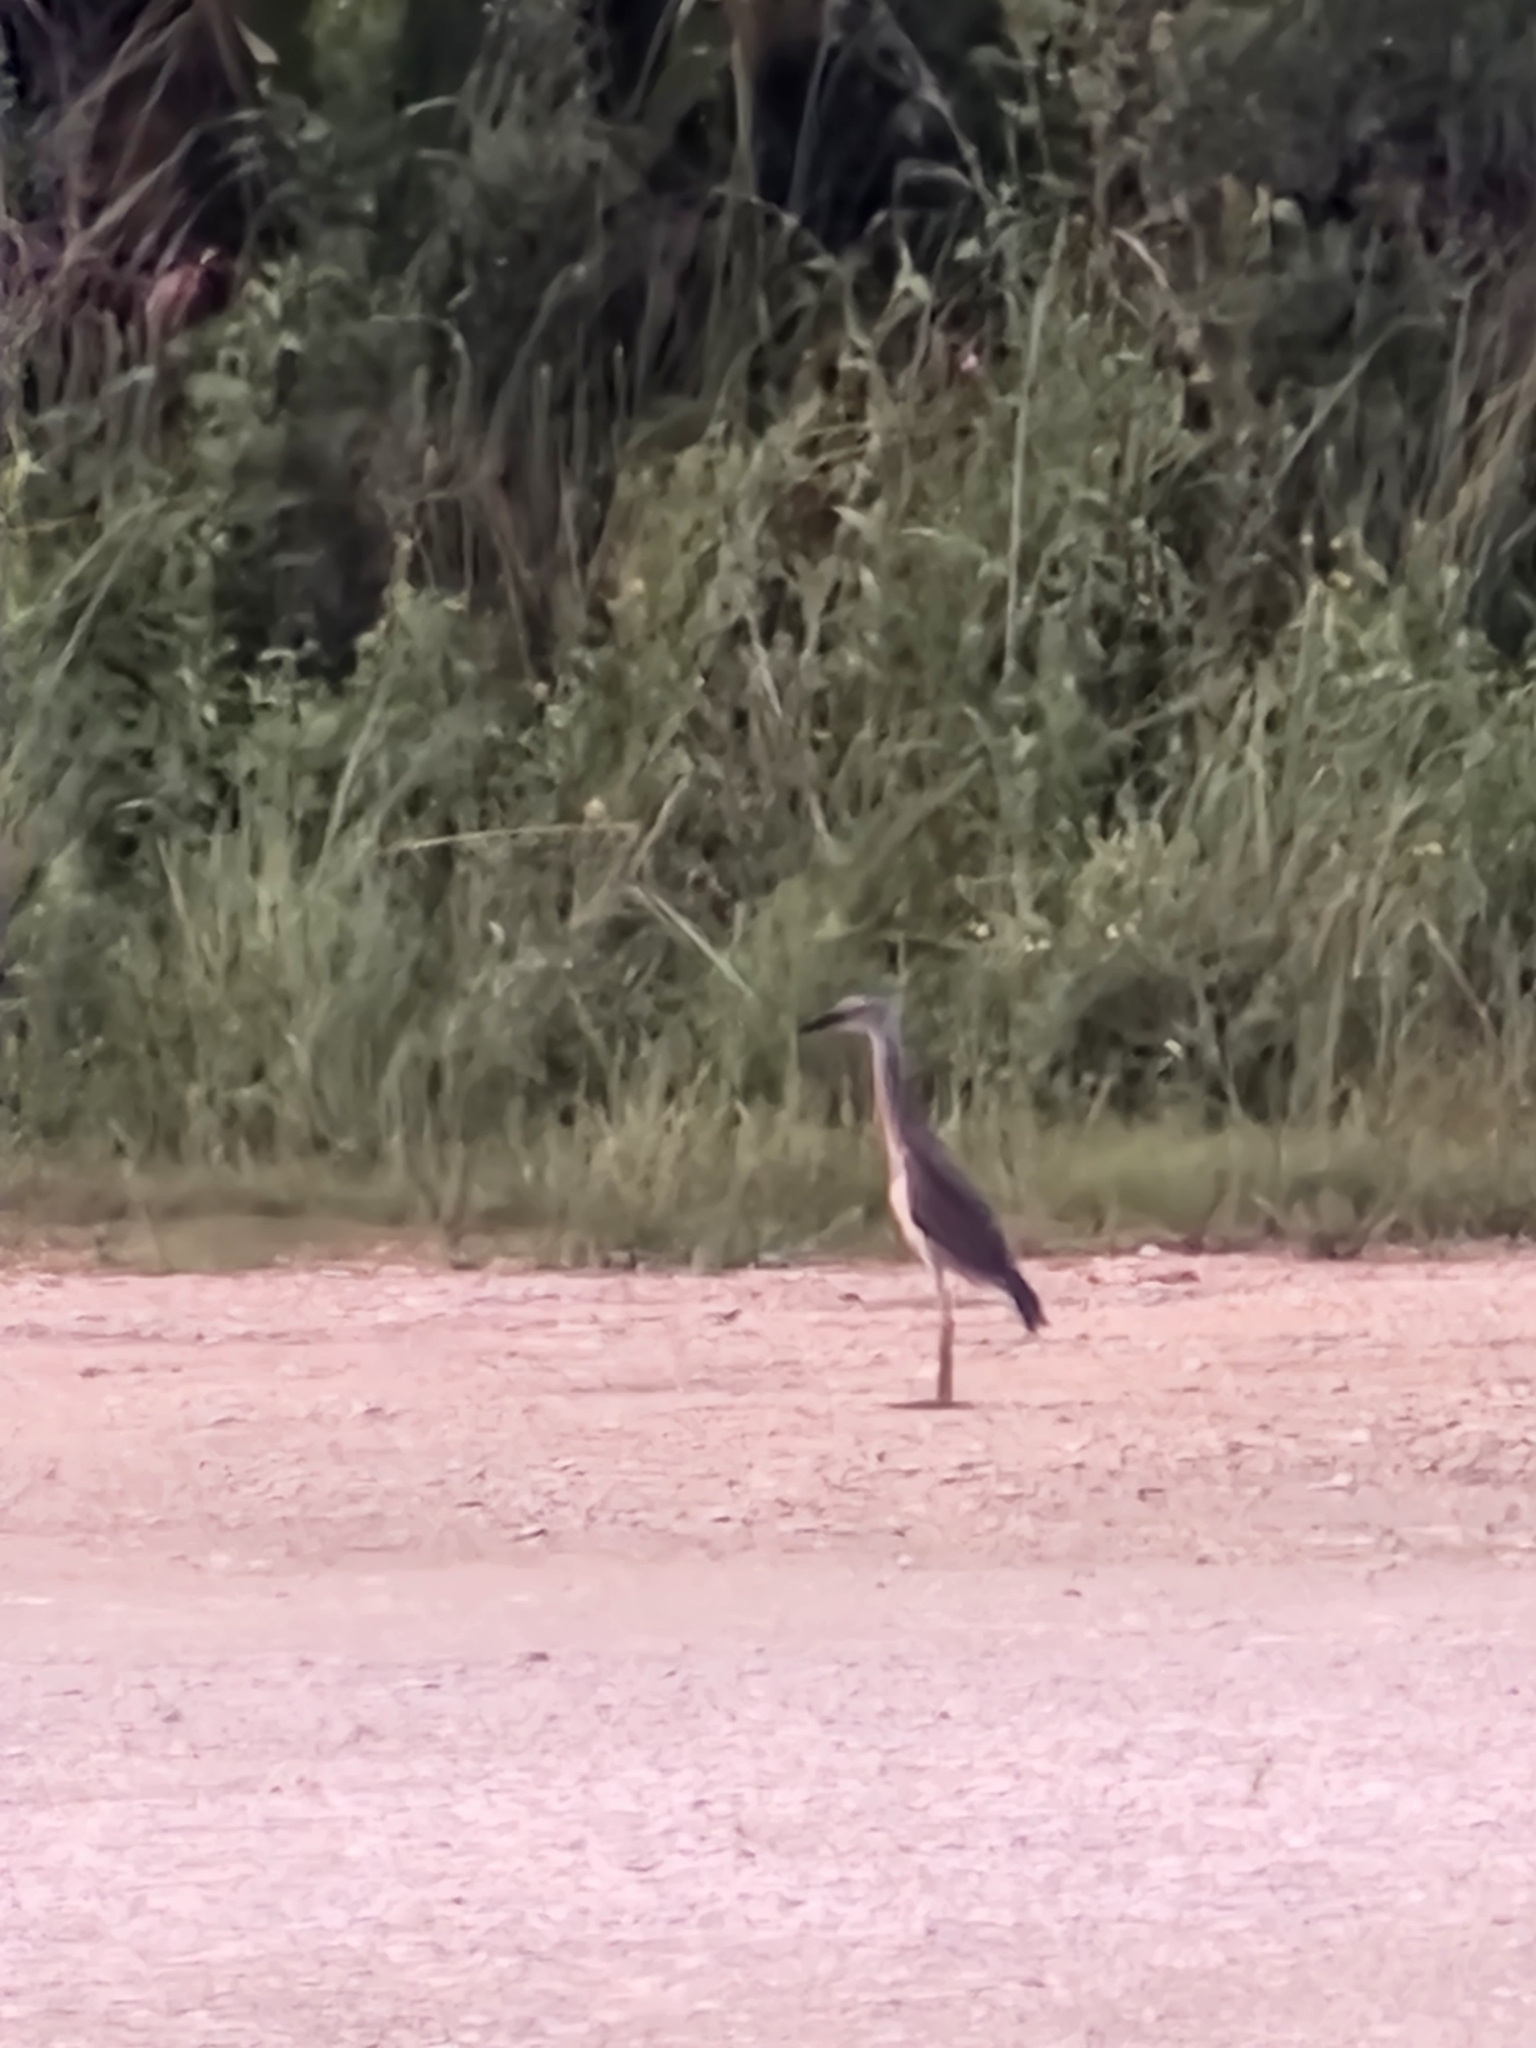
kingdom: Animalia
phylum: Chordata
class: Aves
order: Pelecaniformes
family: Ardeidae
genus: Nyctanassa
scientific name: Nyctanassa violacea
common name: Yellow-crowned night heron
